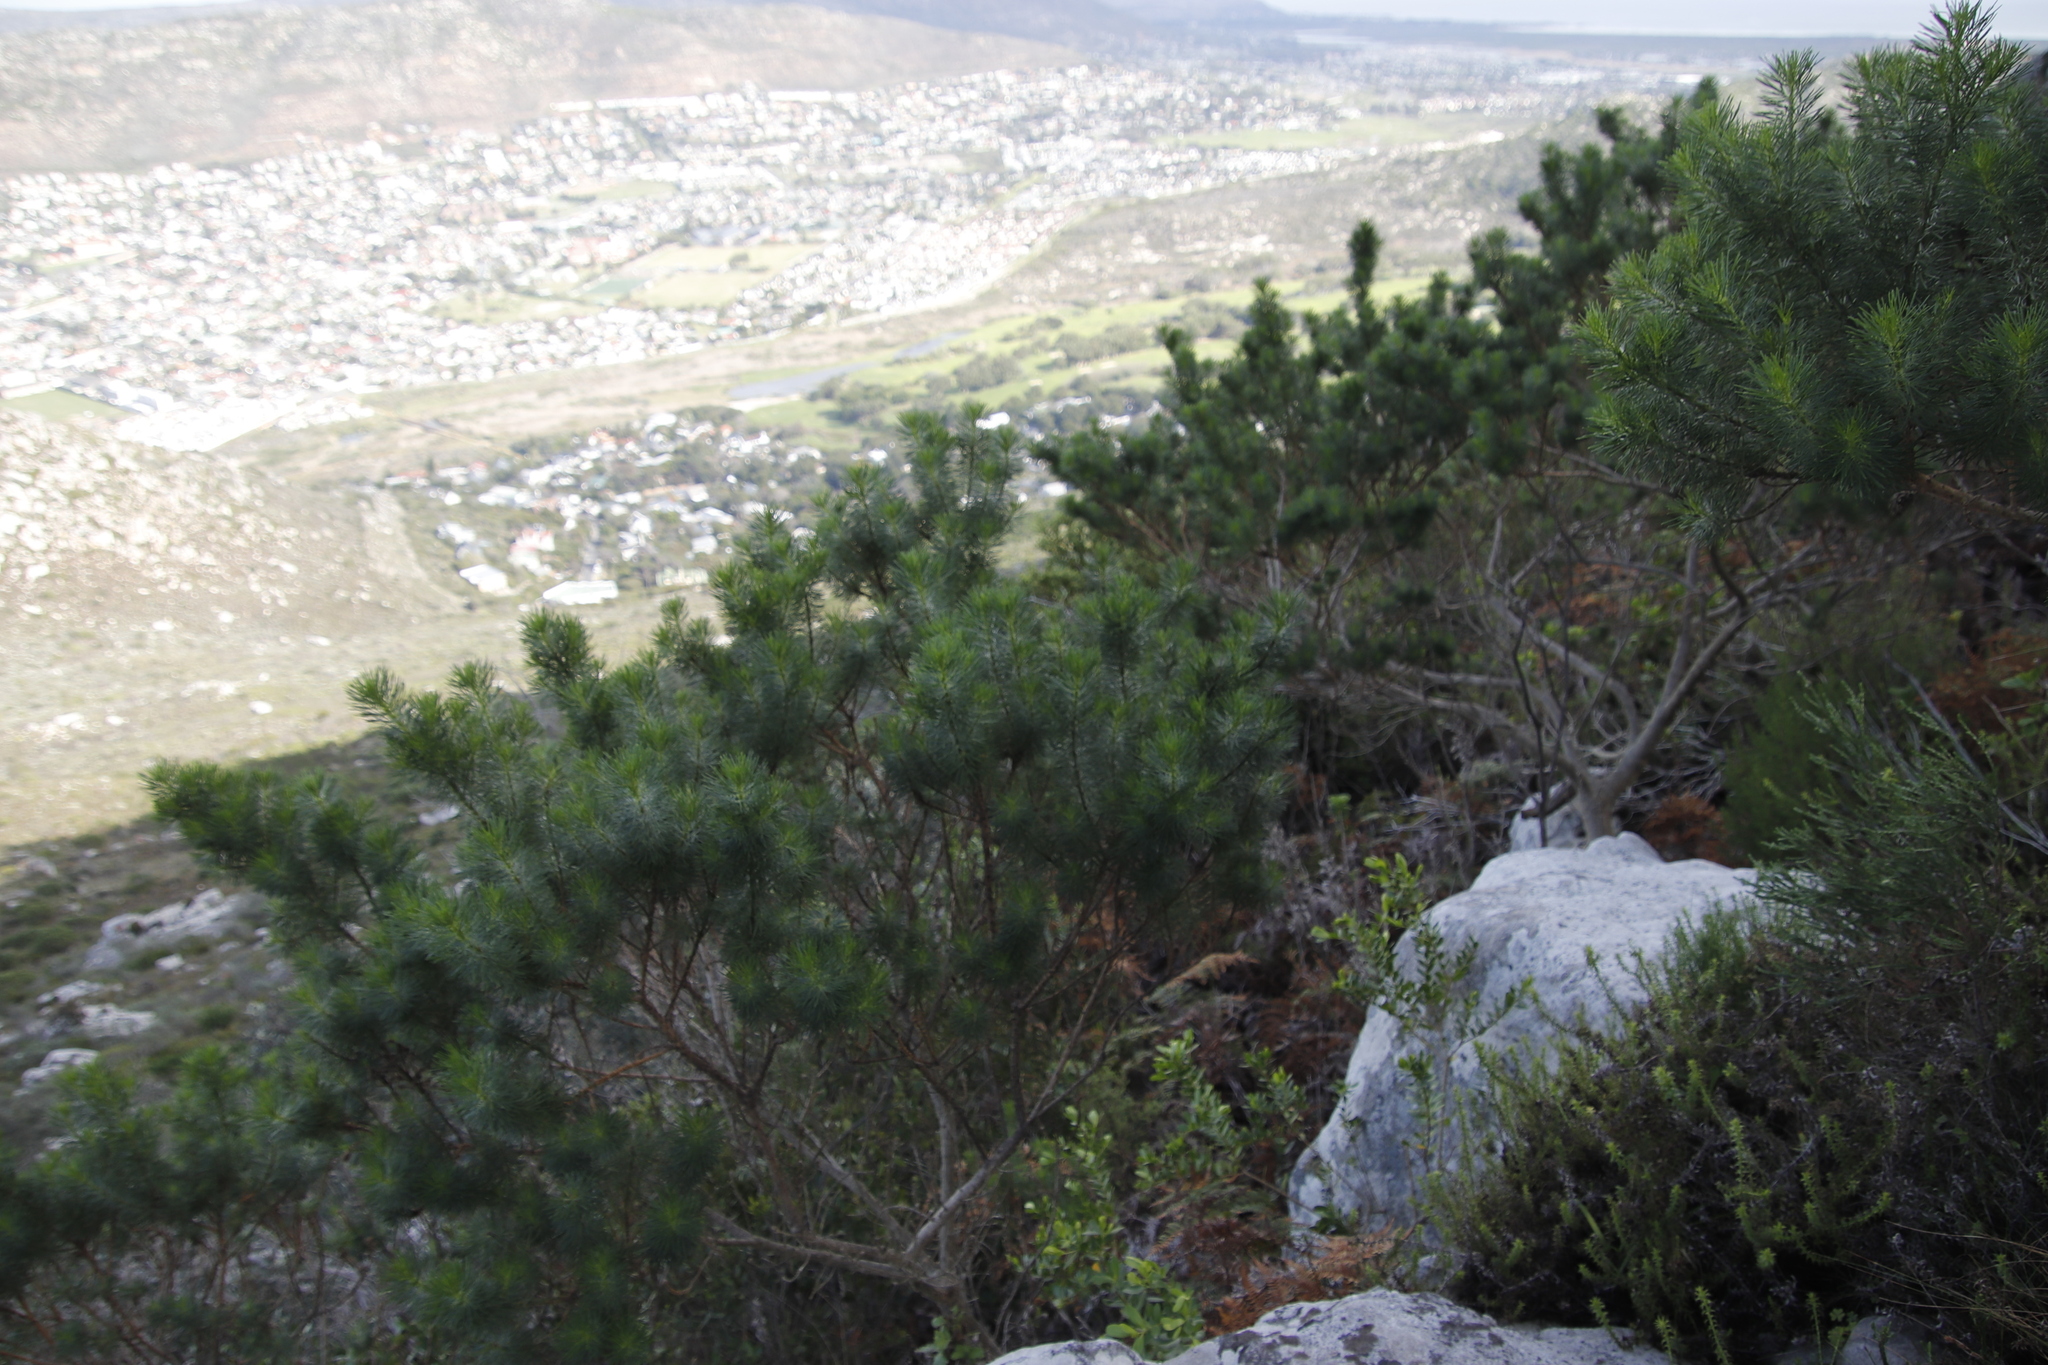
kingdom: Plantae
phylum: Tracheophyta
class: Magnoliopsida
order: Fabales
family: Fabaceae
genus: Psoralea
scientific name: Psoralea pinnata
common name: African scurfpea
